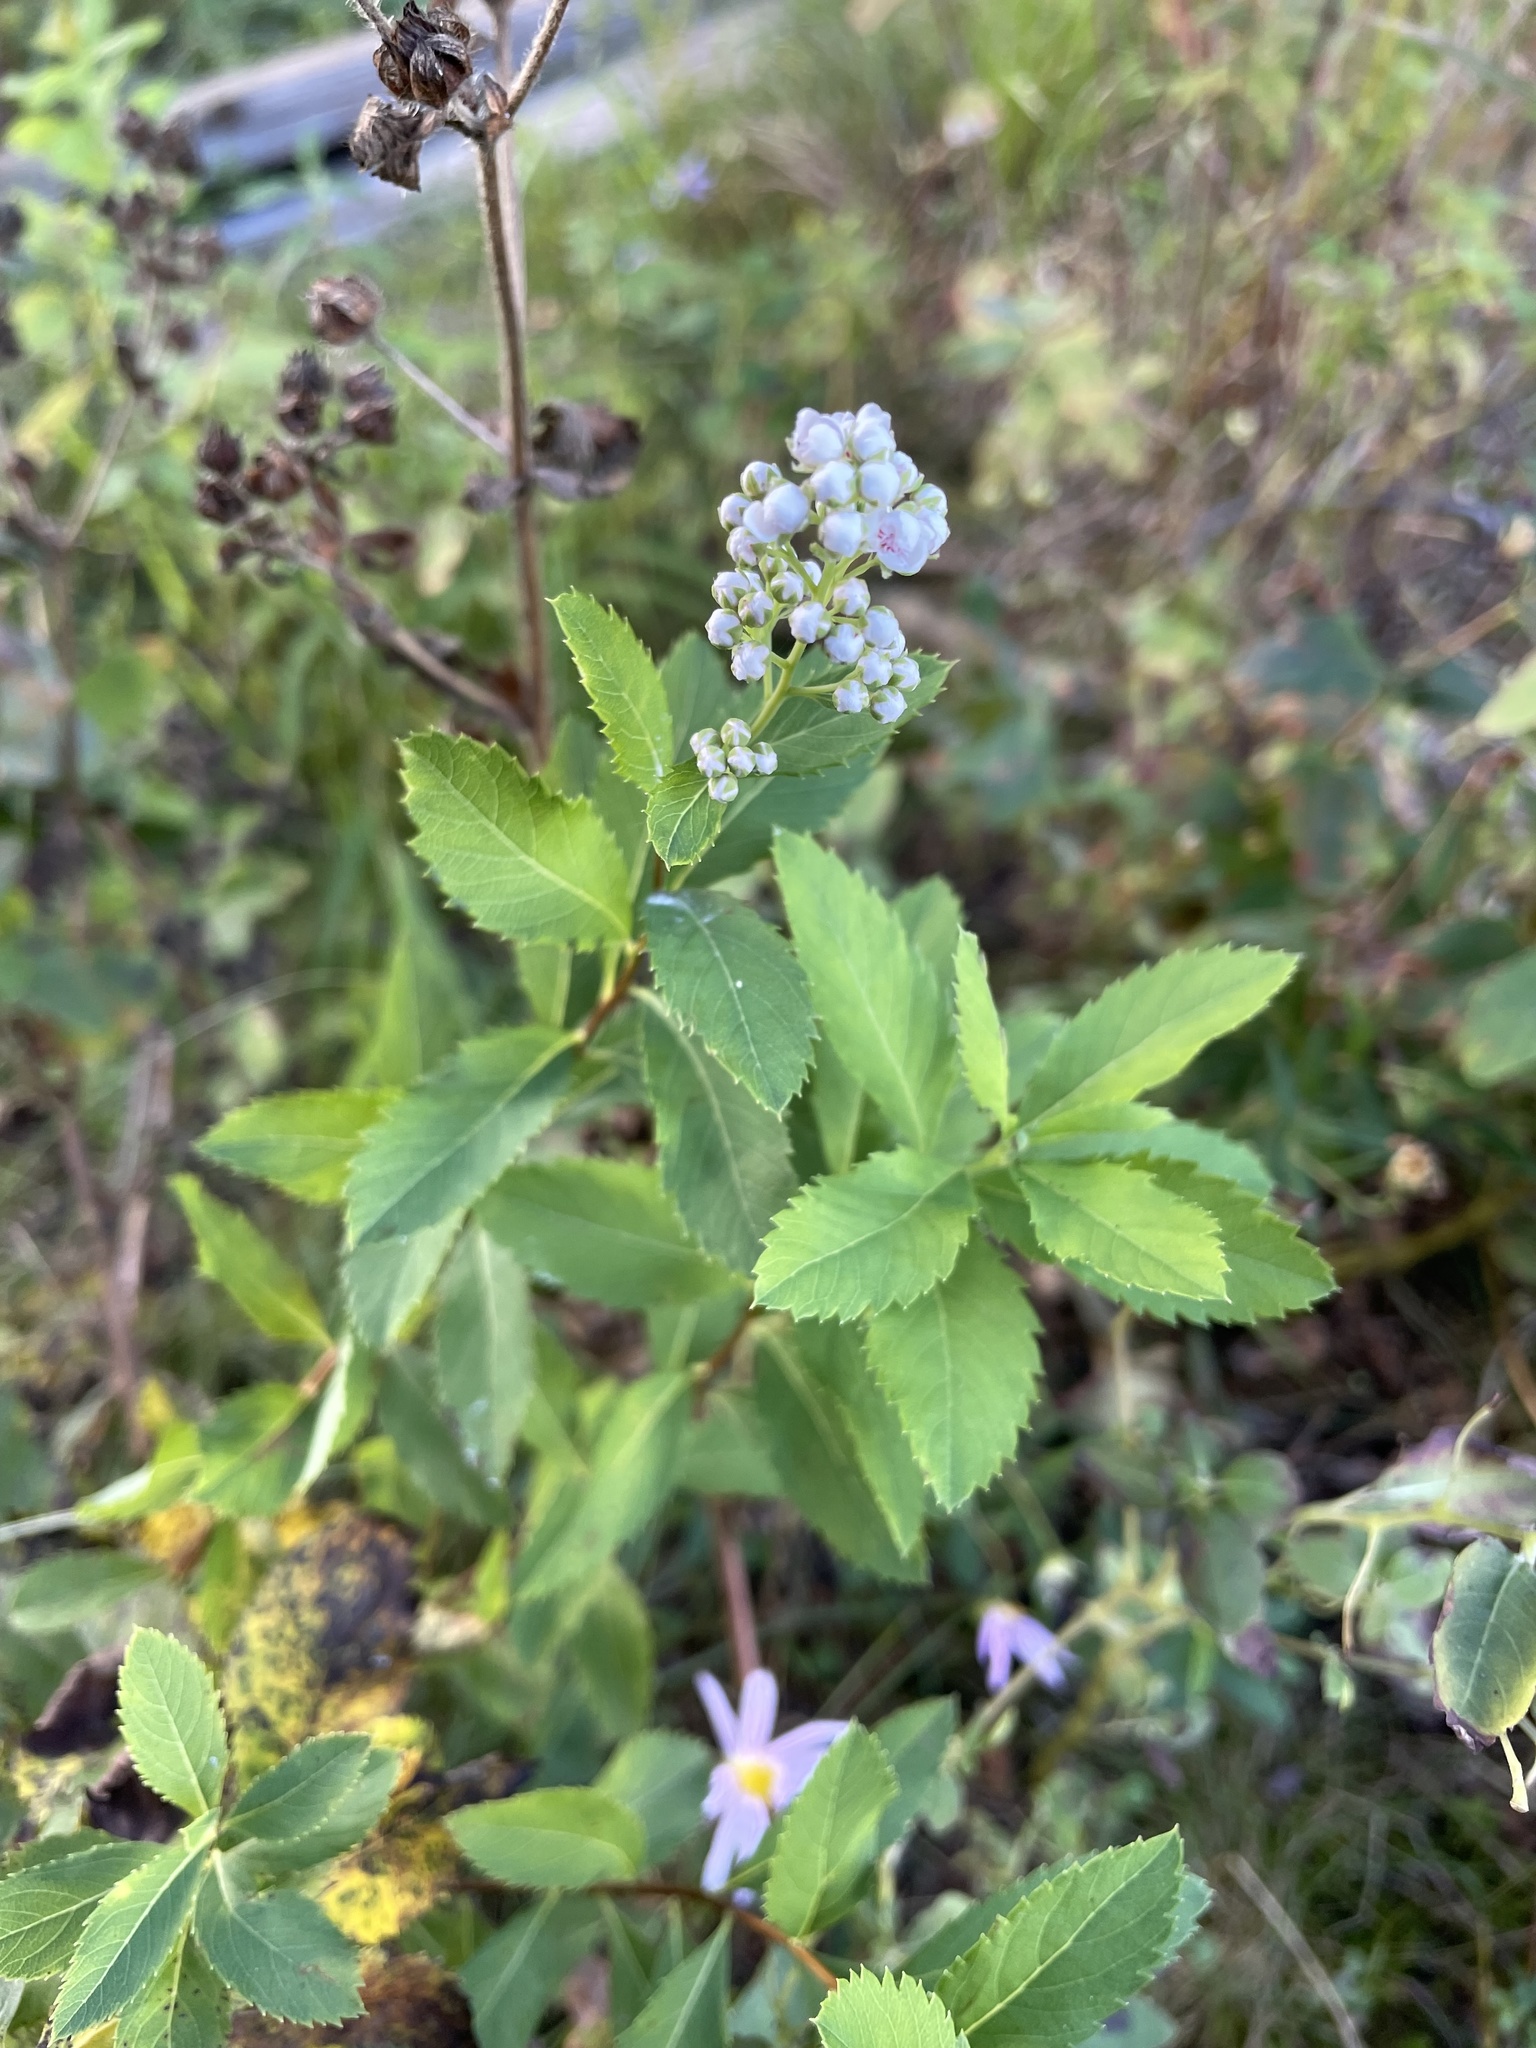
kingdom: Plantae
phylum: Tracheophyta
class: Magnoliopsida
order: Rosales
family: Rosaceae
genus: Spiraea
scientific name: Spiraea alba
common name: Pale bridewort
